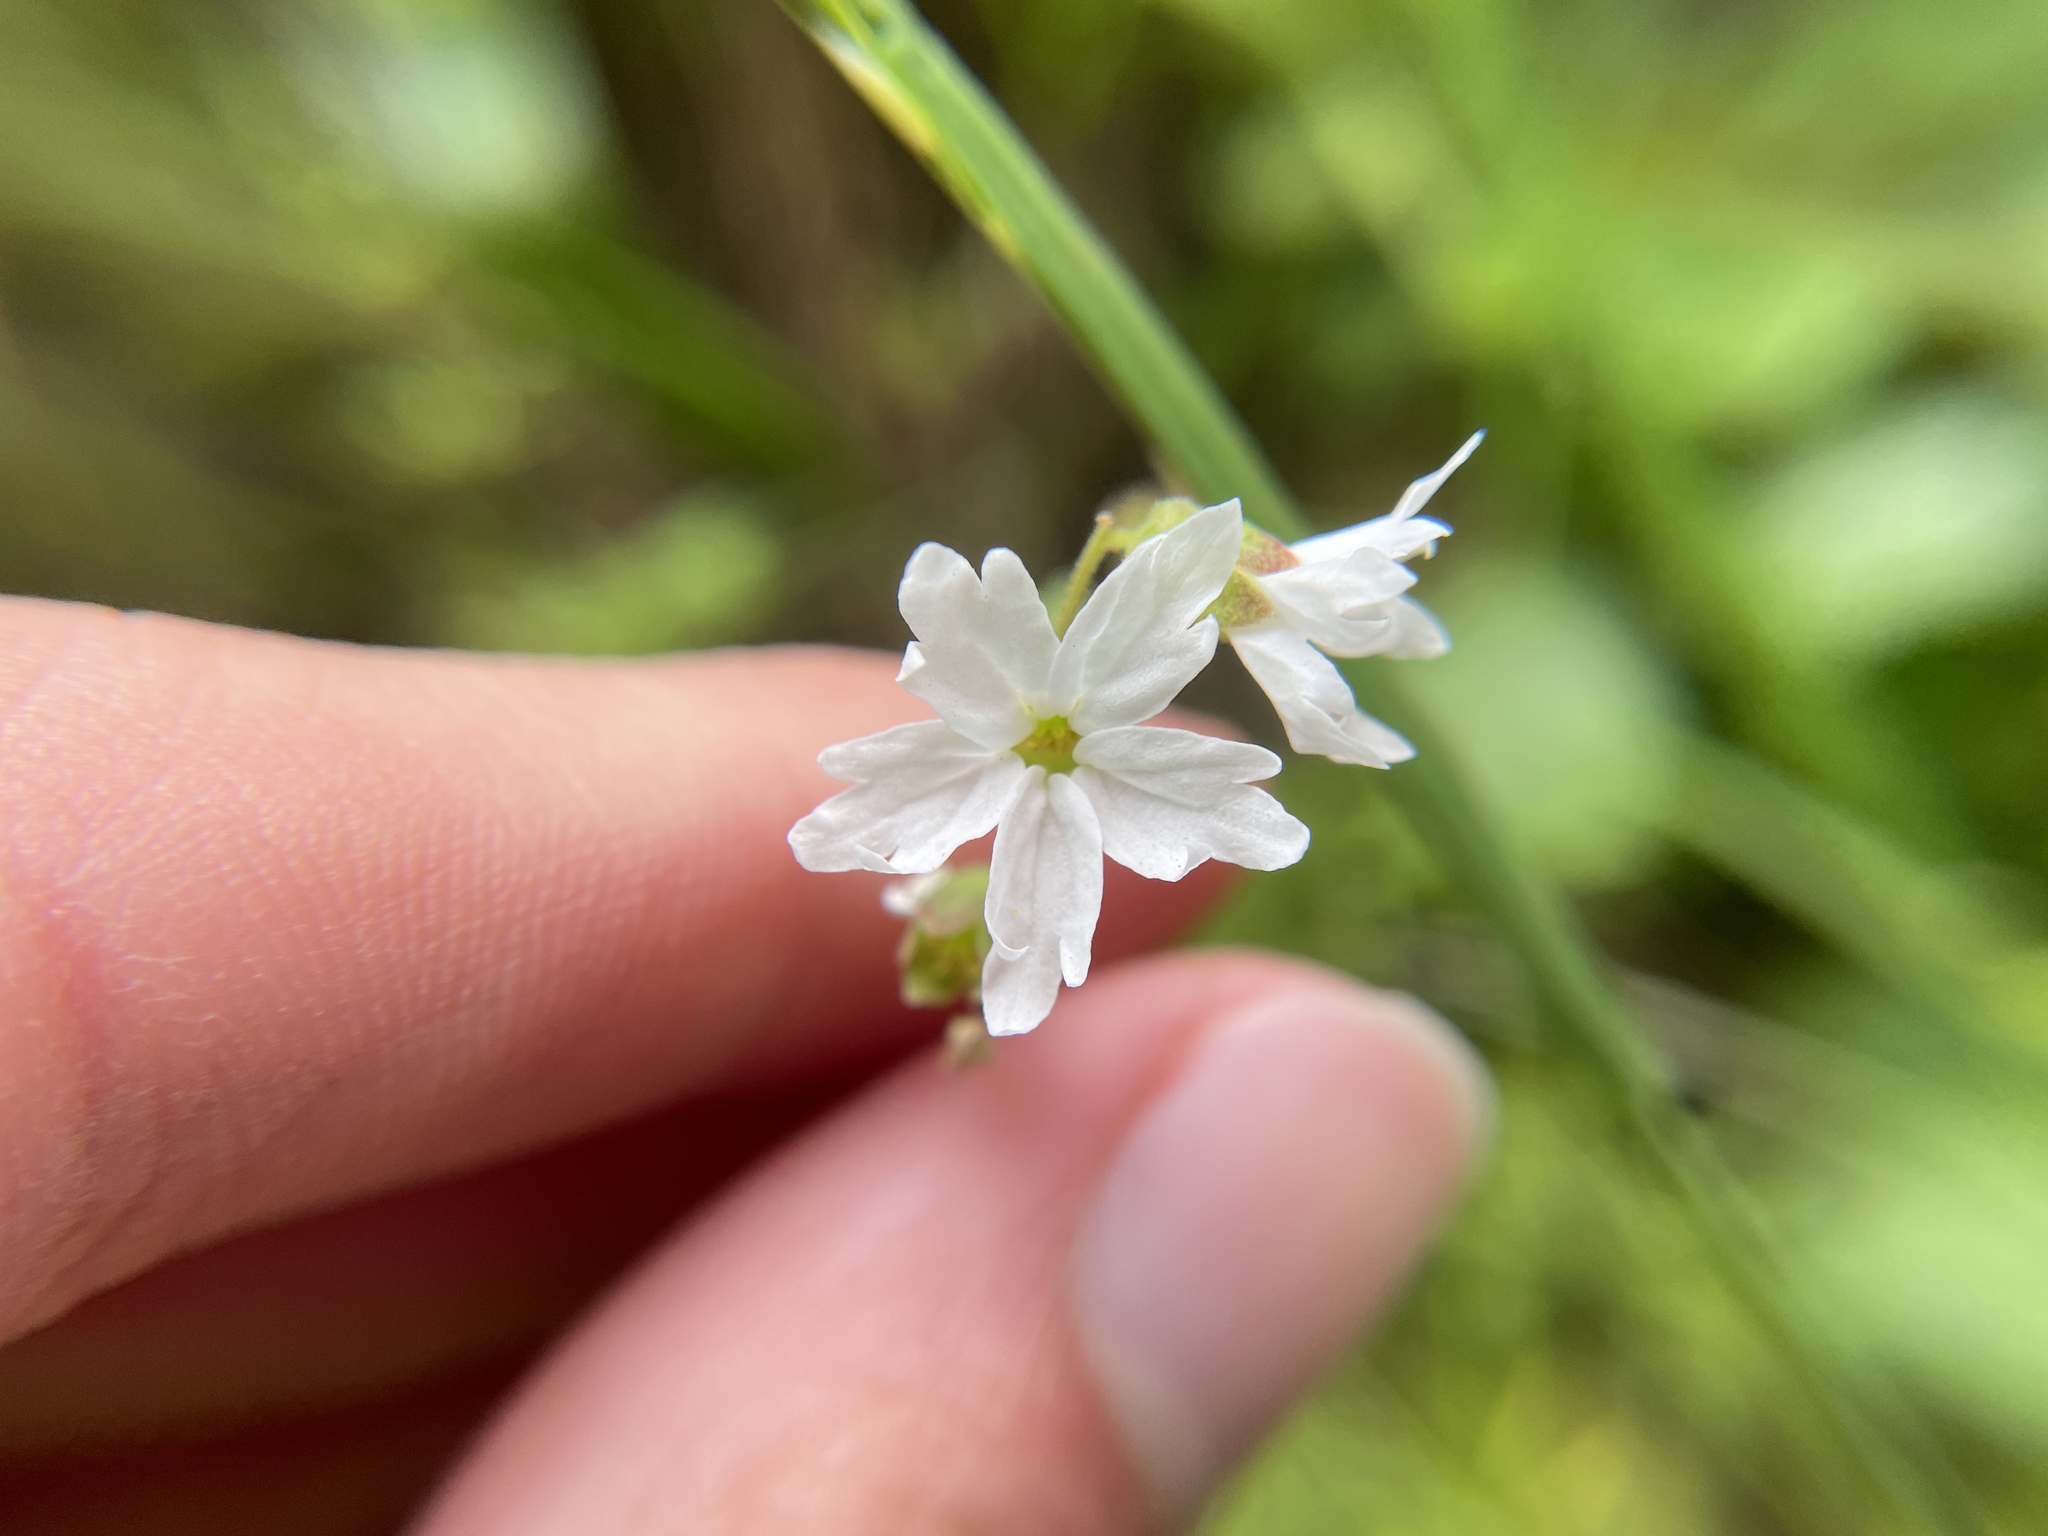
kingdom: Plantae
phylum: Tracheophyta
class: Magnoliopsida
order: Saxifragales
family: Saxifragaceae
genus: Lithophragma
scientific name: Lithophragma heterophyllum
